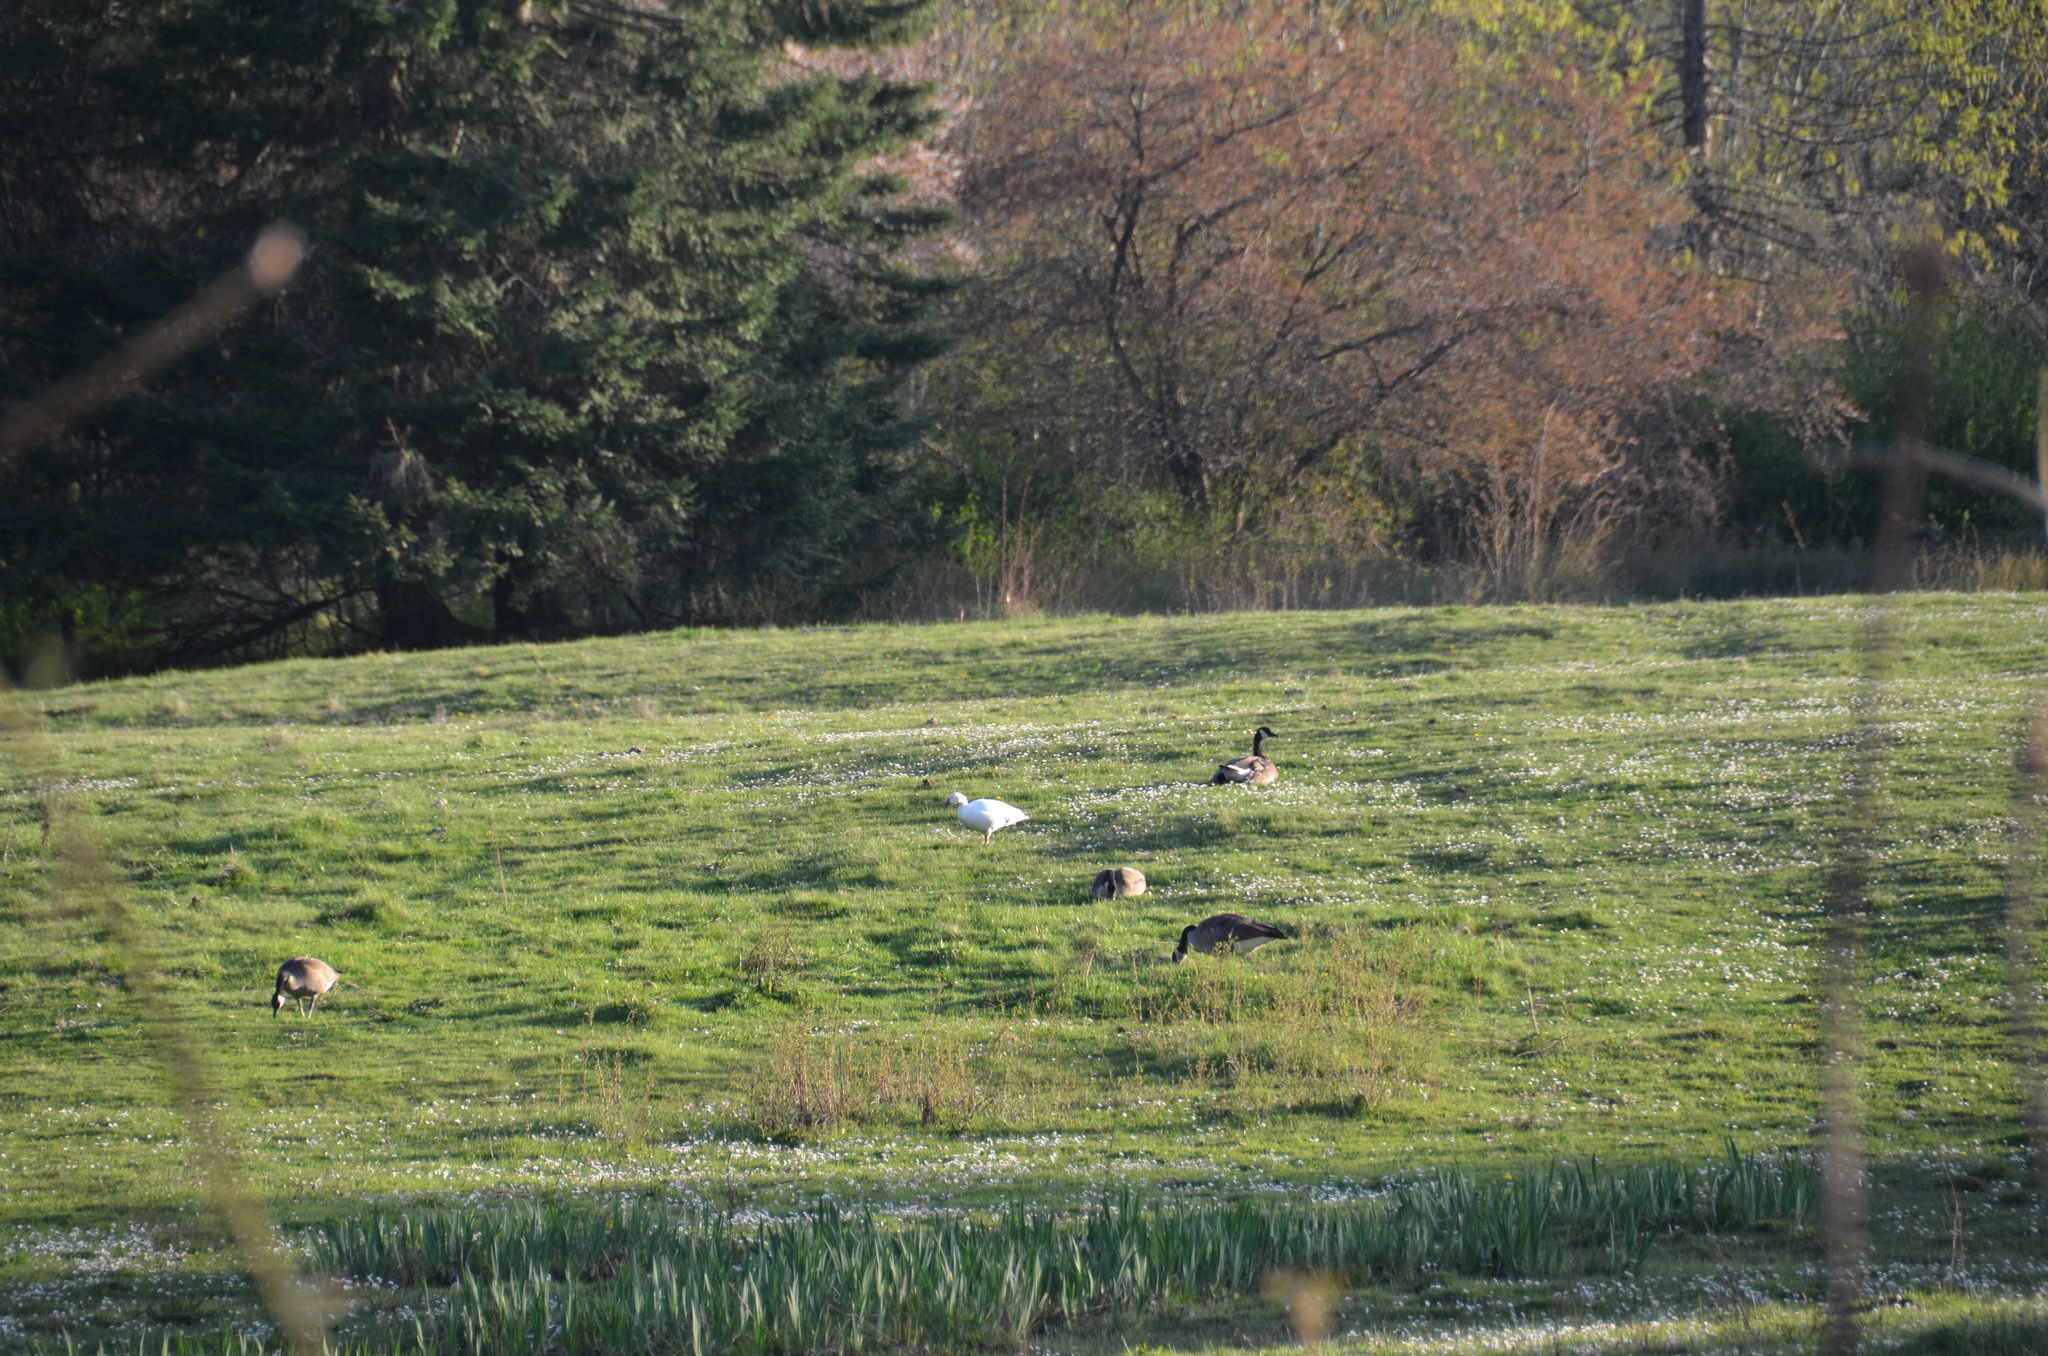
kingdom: Animalia
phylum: Chordata
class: Aves
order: Anseriformes
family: Anatidae
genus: Anser
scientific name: Anser caerulescens
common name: Snow goose
